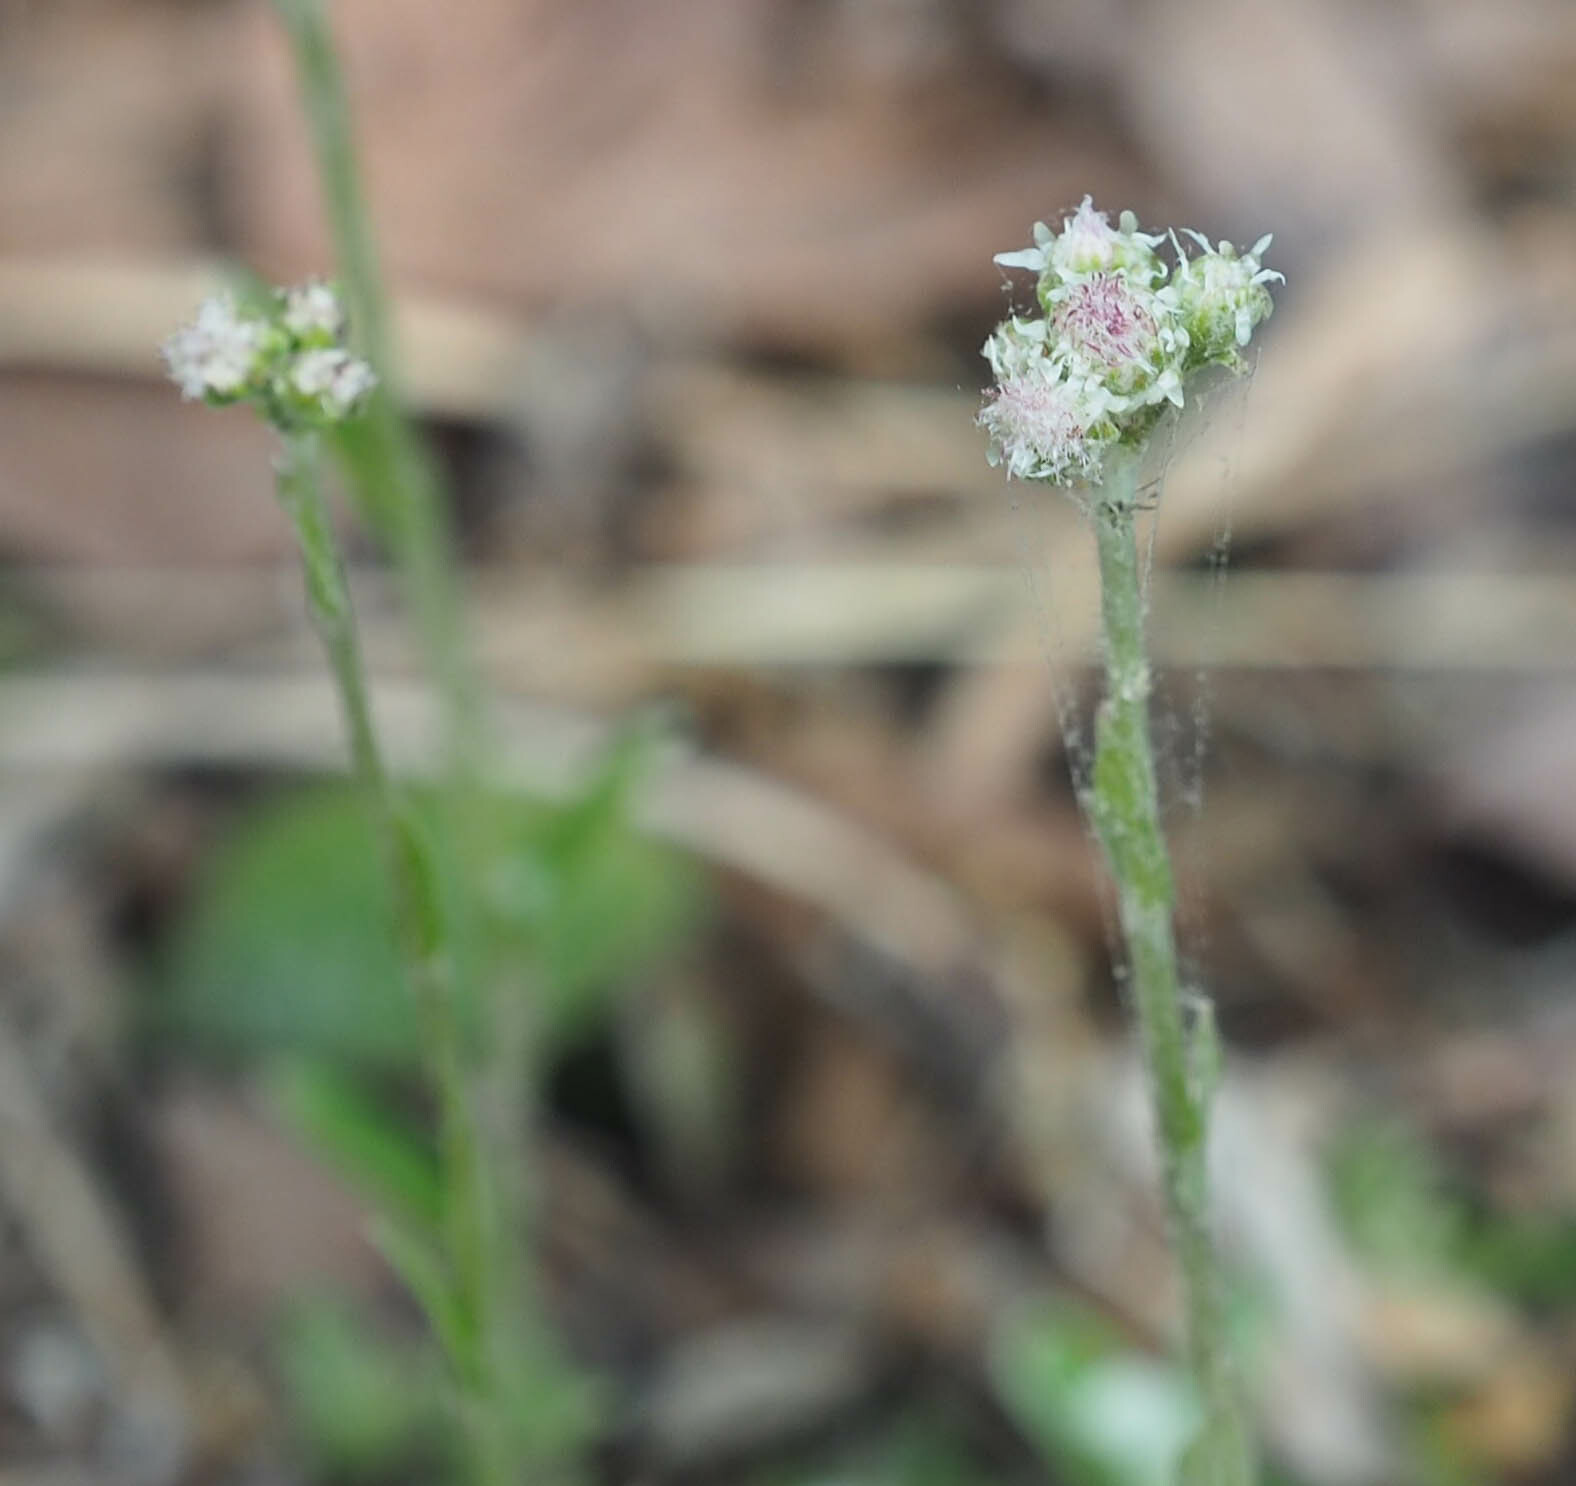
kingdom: Plantae
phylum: Tracheophyta
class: Magnoliopsida
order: Asterales
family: Asteraceae
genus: Antennaria
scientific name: Antennaria parlinii
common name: Parlin's pussytoes
